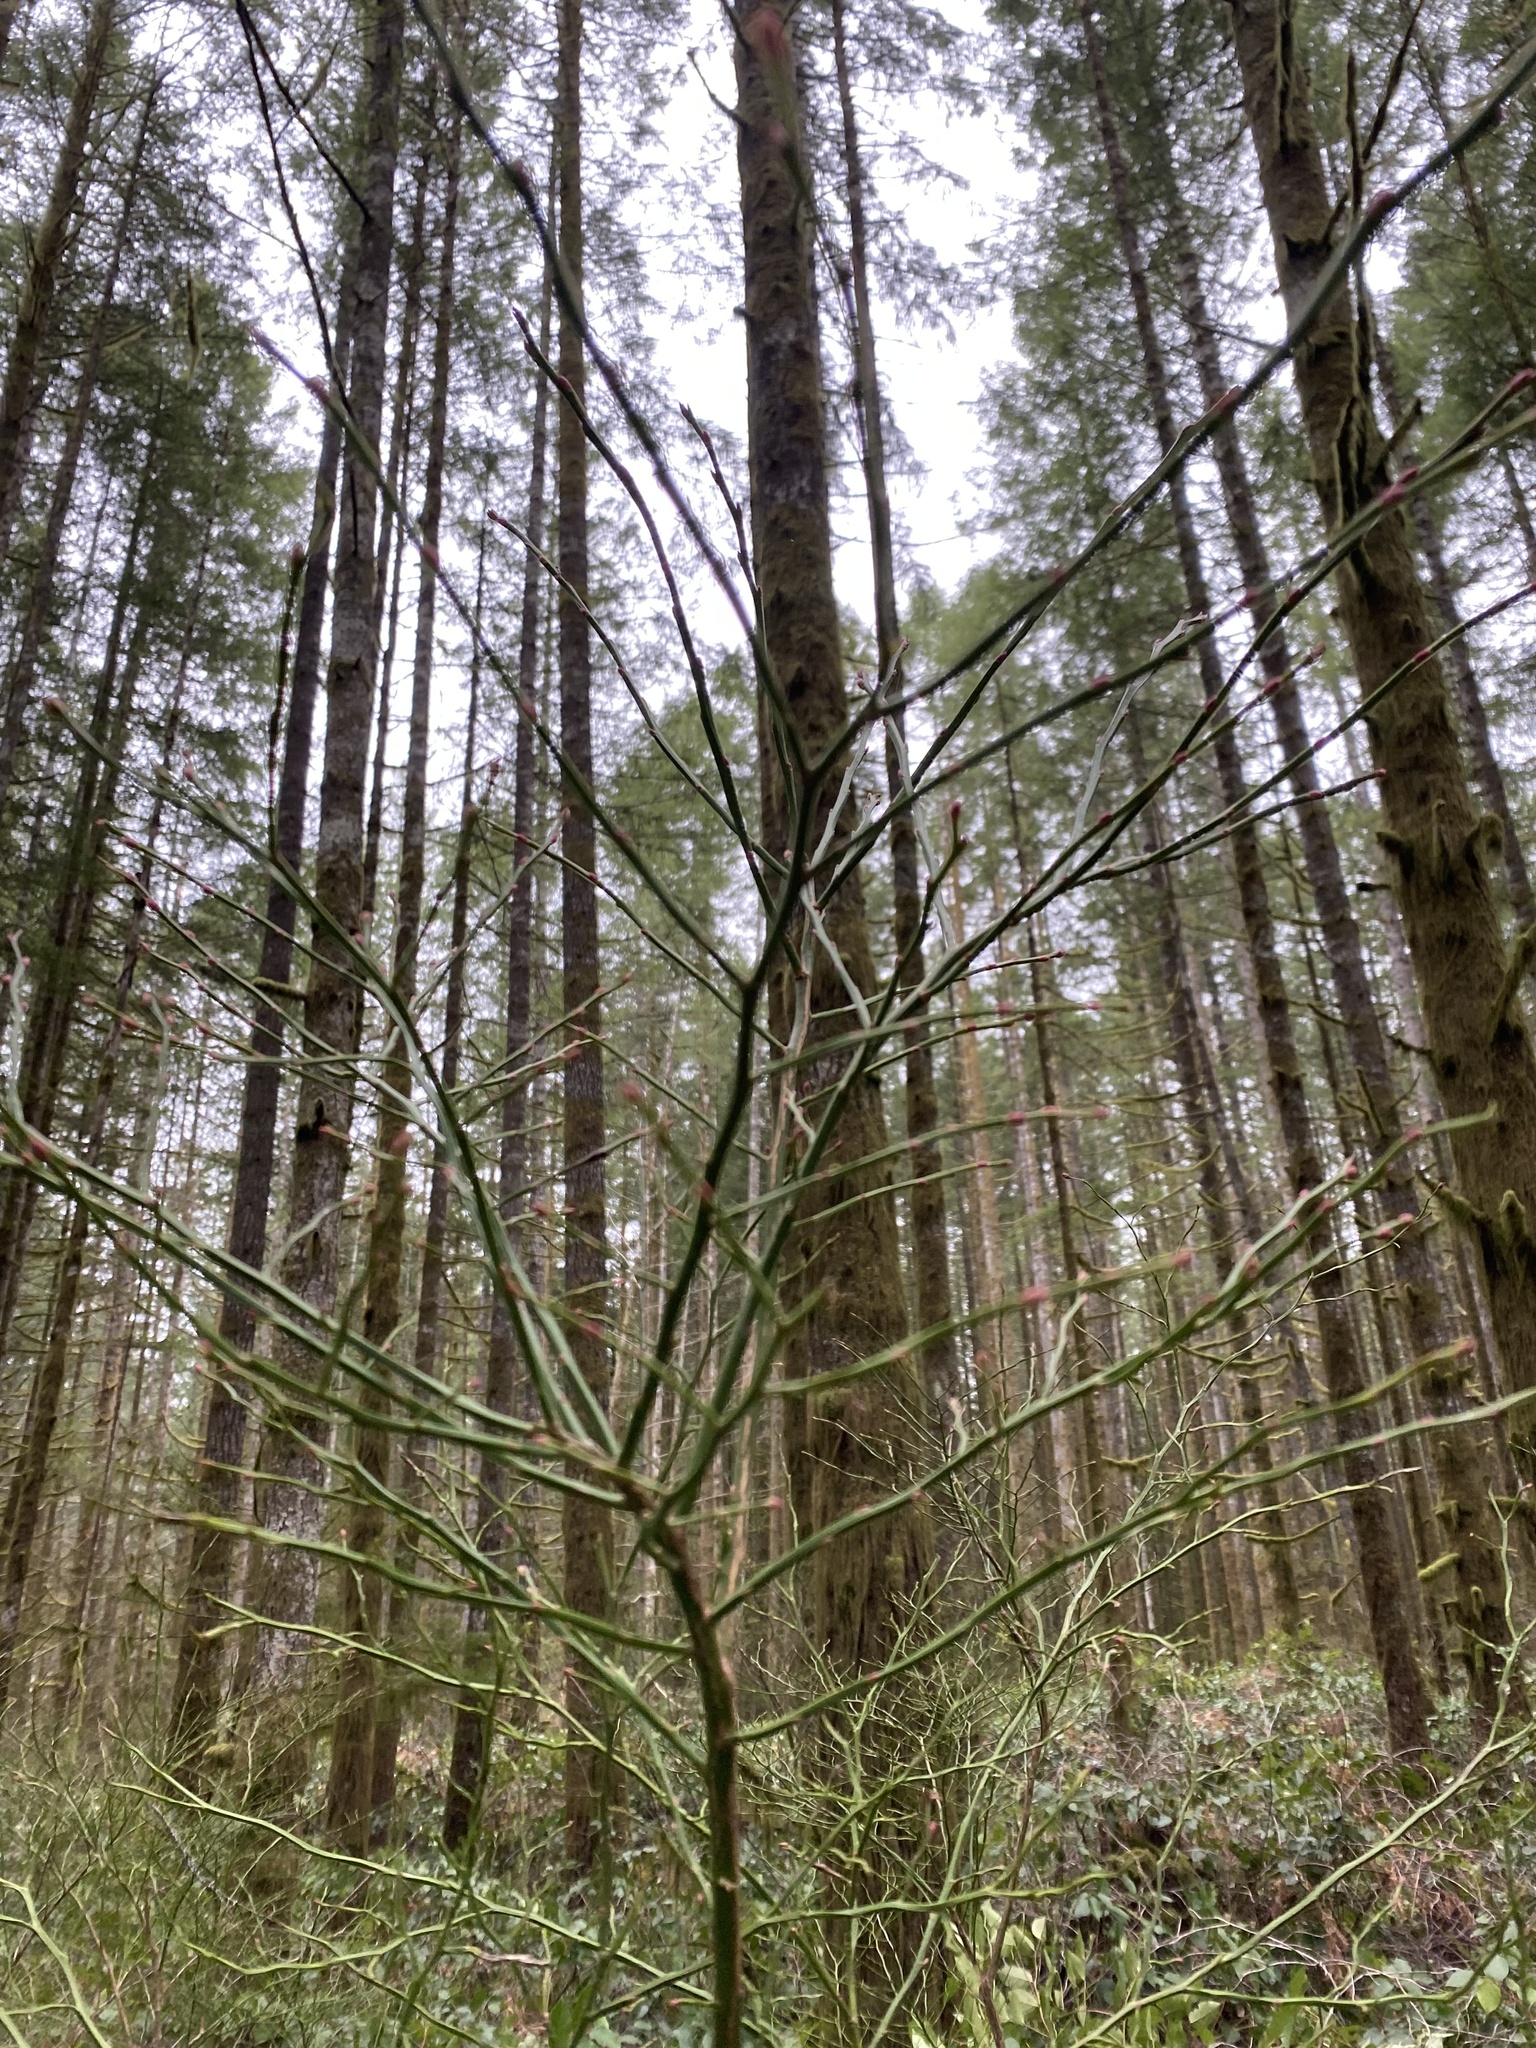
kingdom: Plantae
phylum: Tracheophyta
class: Magnoliopsida
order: Ericales
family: Ericaceae
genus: Vaccinium
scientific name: Vaccinium parvifolium
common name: Red-huckleberry
